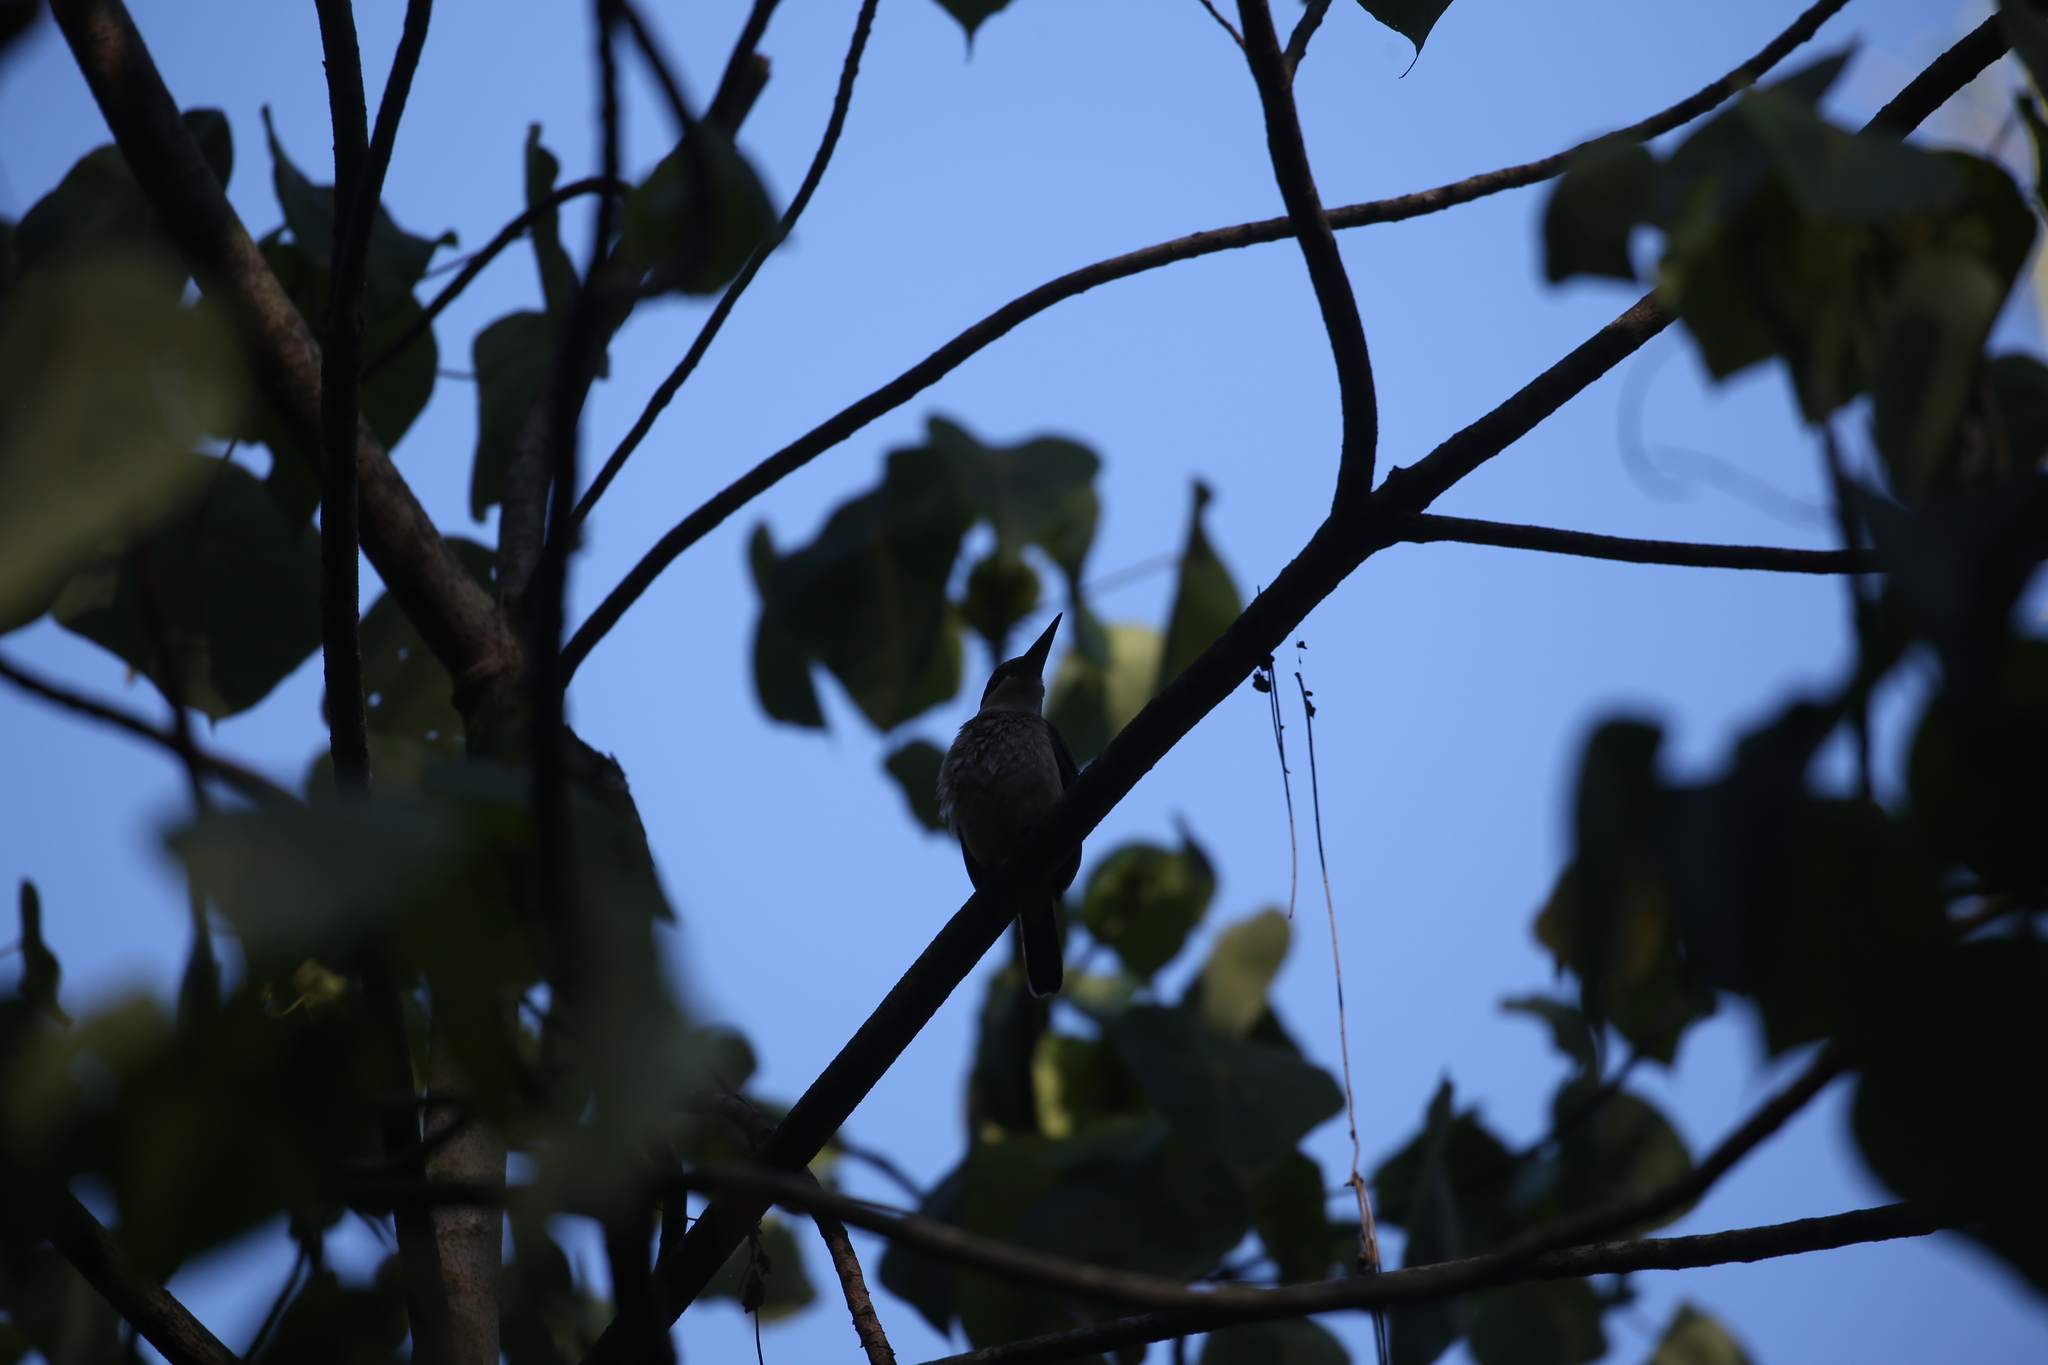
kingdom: Animalia
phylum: Chordata
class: Aves
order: Coraciiformes
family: Alcedinidae
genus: Todiramphus
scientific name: Todiramphus macleayii
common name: Forest kingfisher
